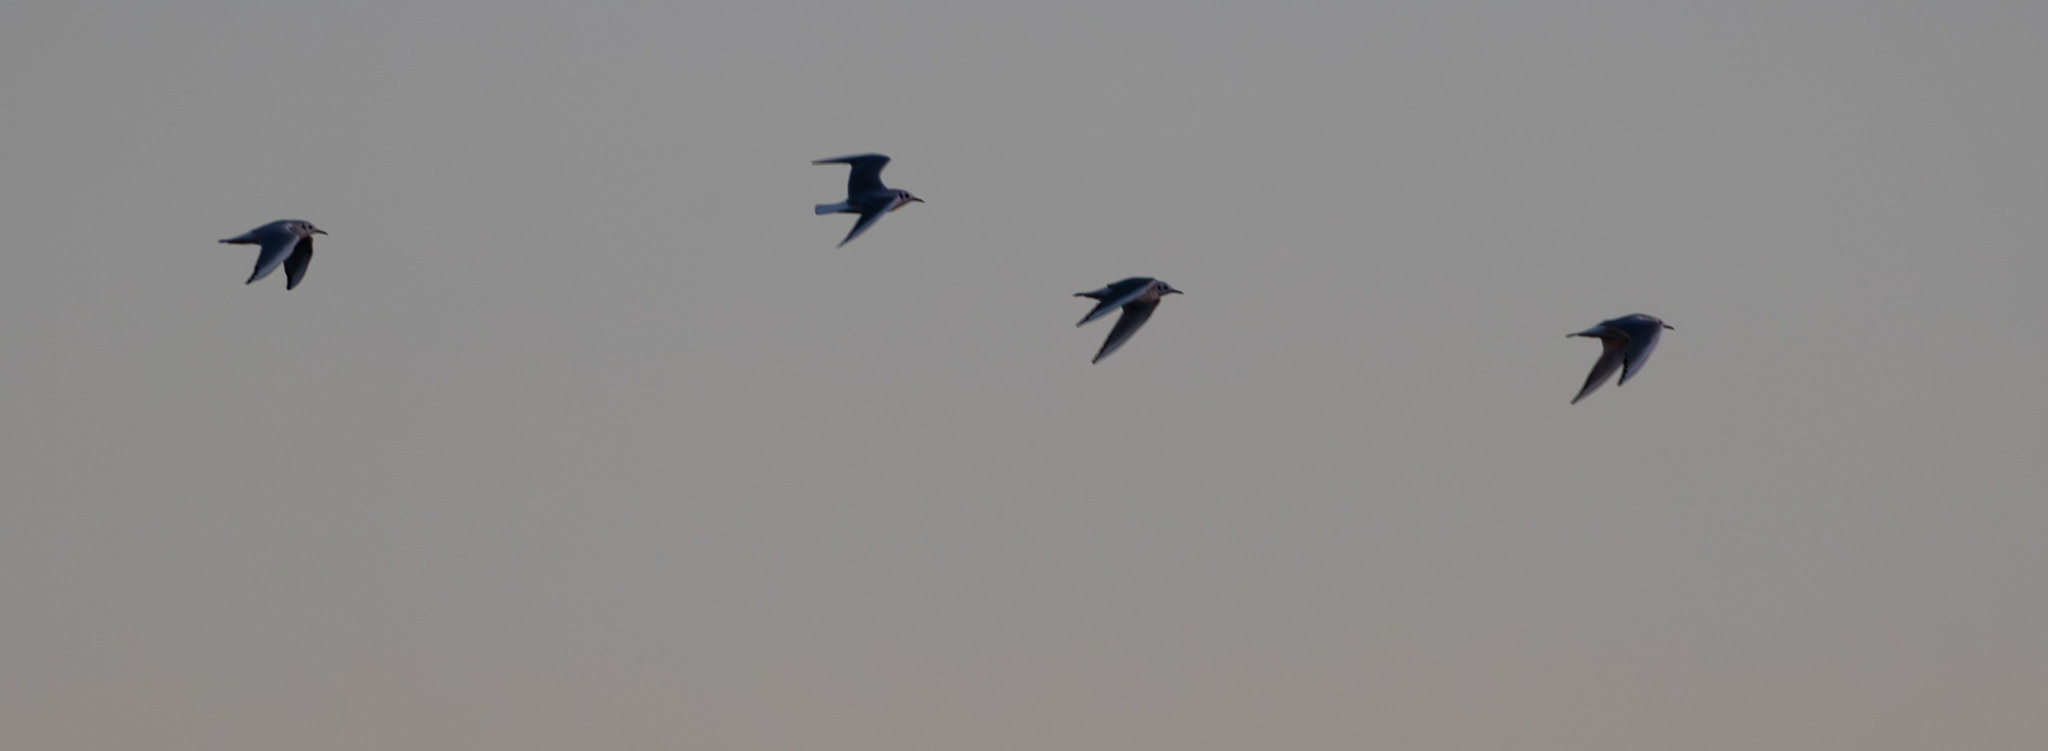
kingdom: Animalia
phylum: Chordata
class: Aves
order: Charadriiformes
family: Laridae
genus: Chroicocephalus
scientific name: Chroicocephalus philadelphia
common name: Bonaparte's gull
